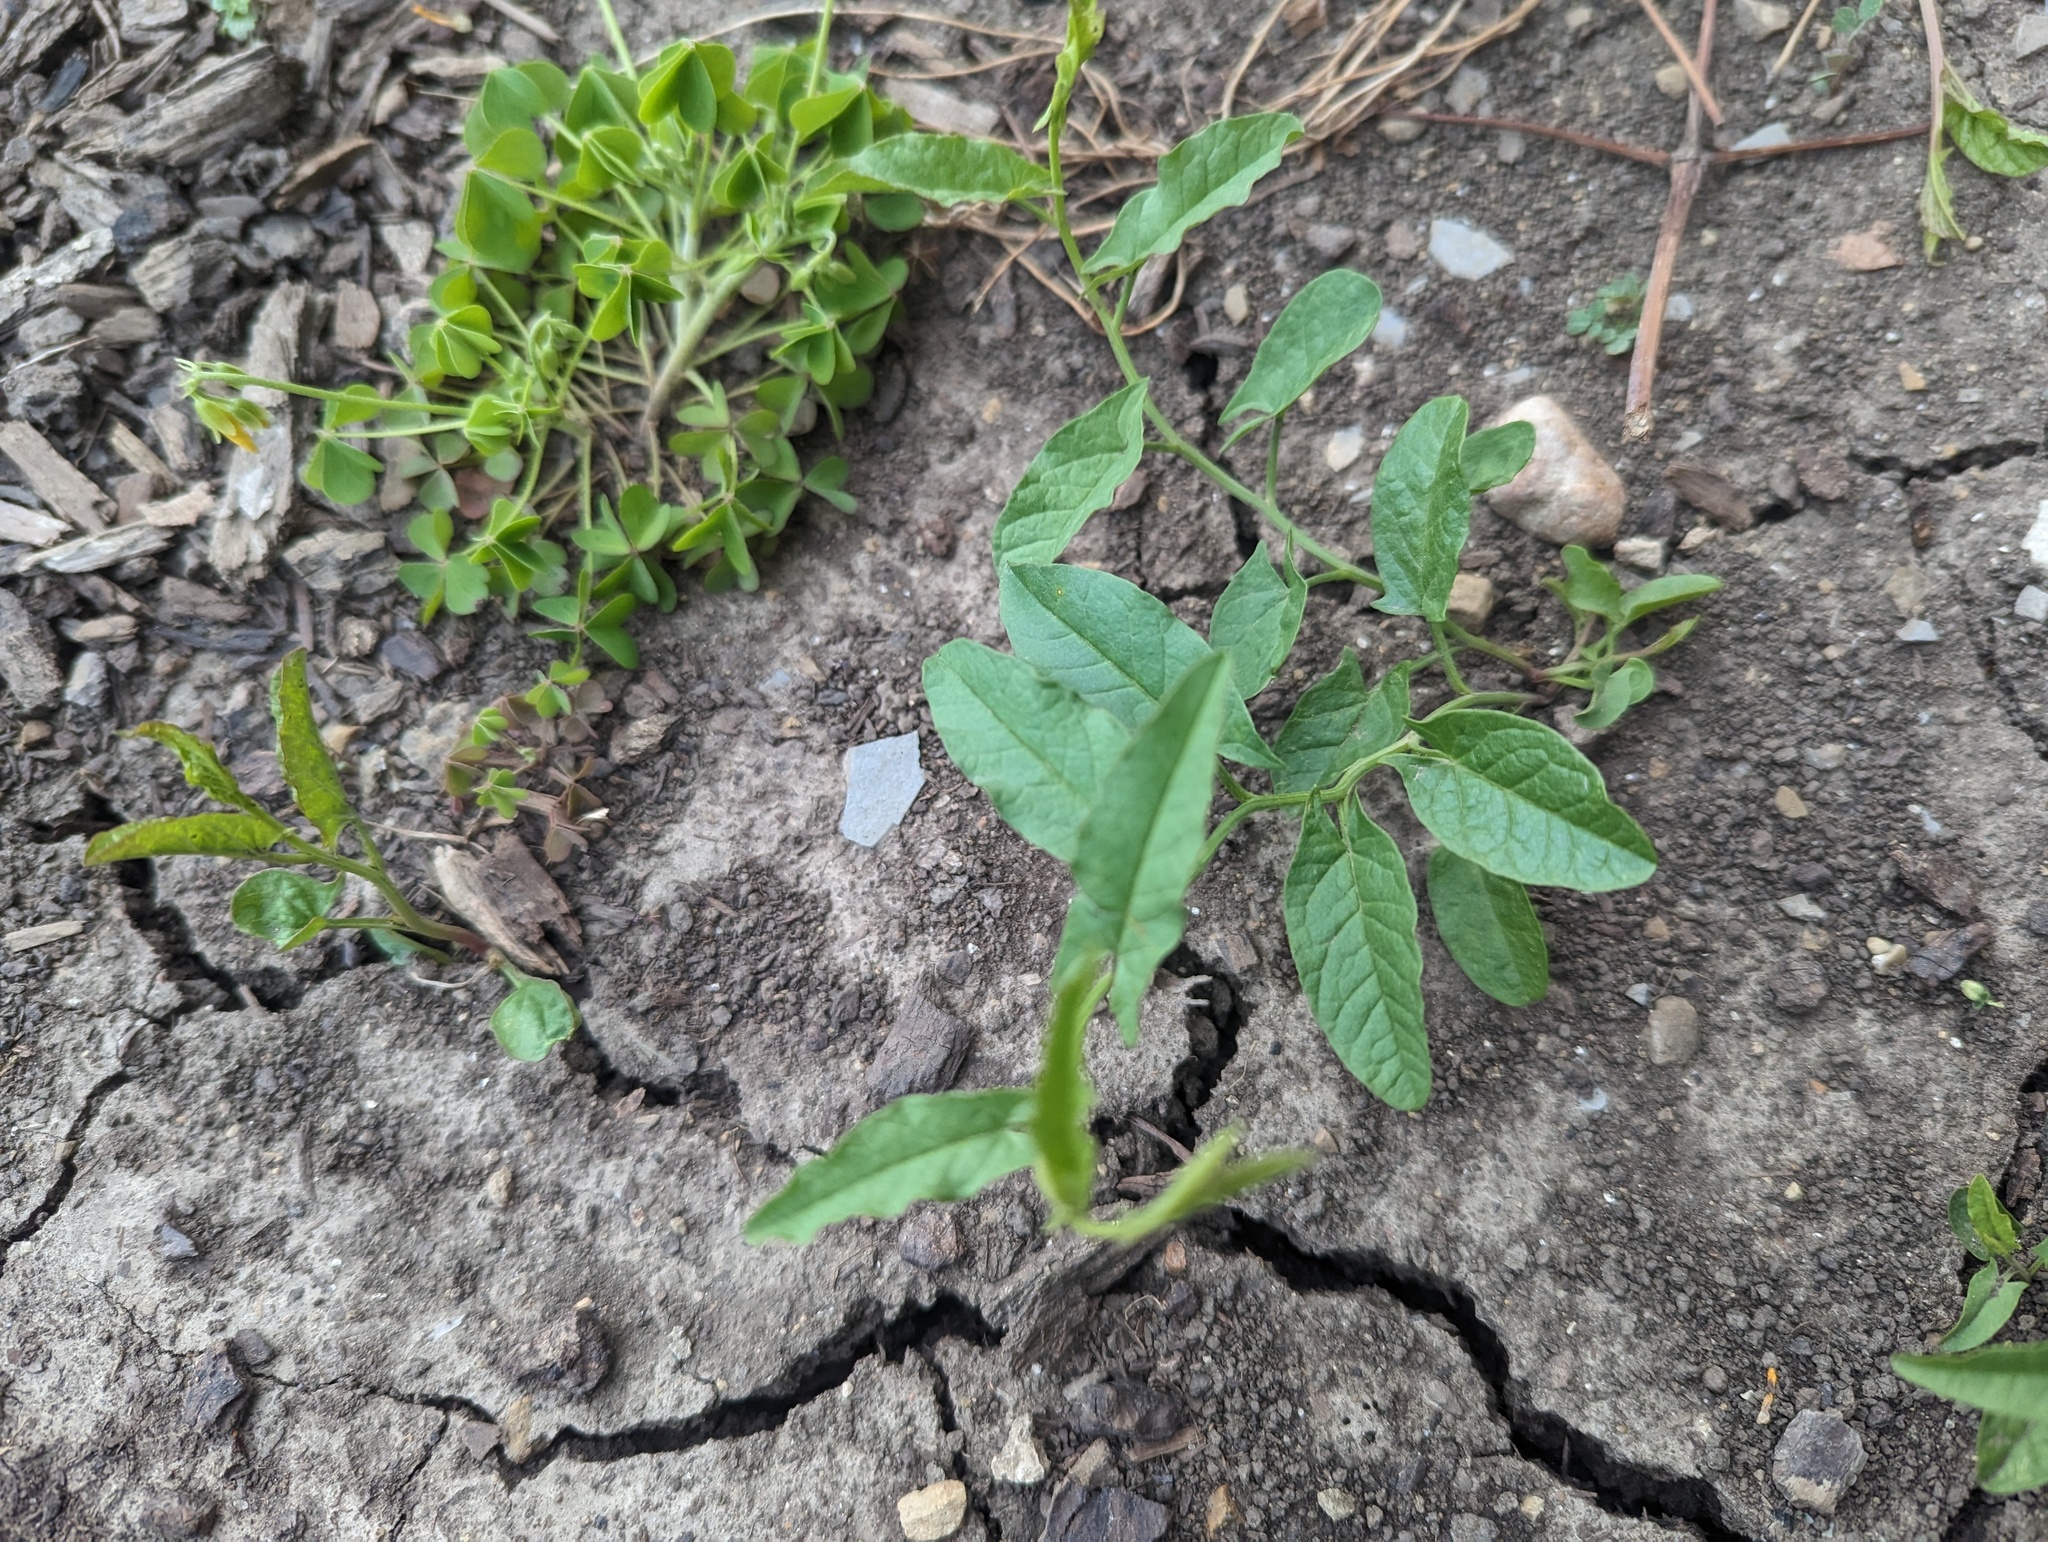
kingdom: Plantae
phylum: Tracheophyta
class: Magnoliopsida
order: Solanales
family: Convolvulaceae
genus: Convolvulus
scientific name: Convolvulus arvensis
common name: Field bindweed
